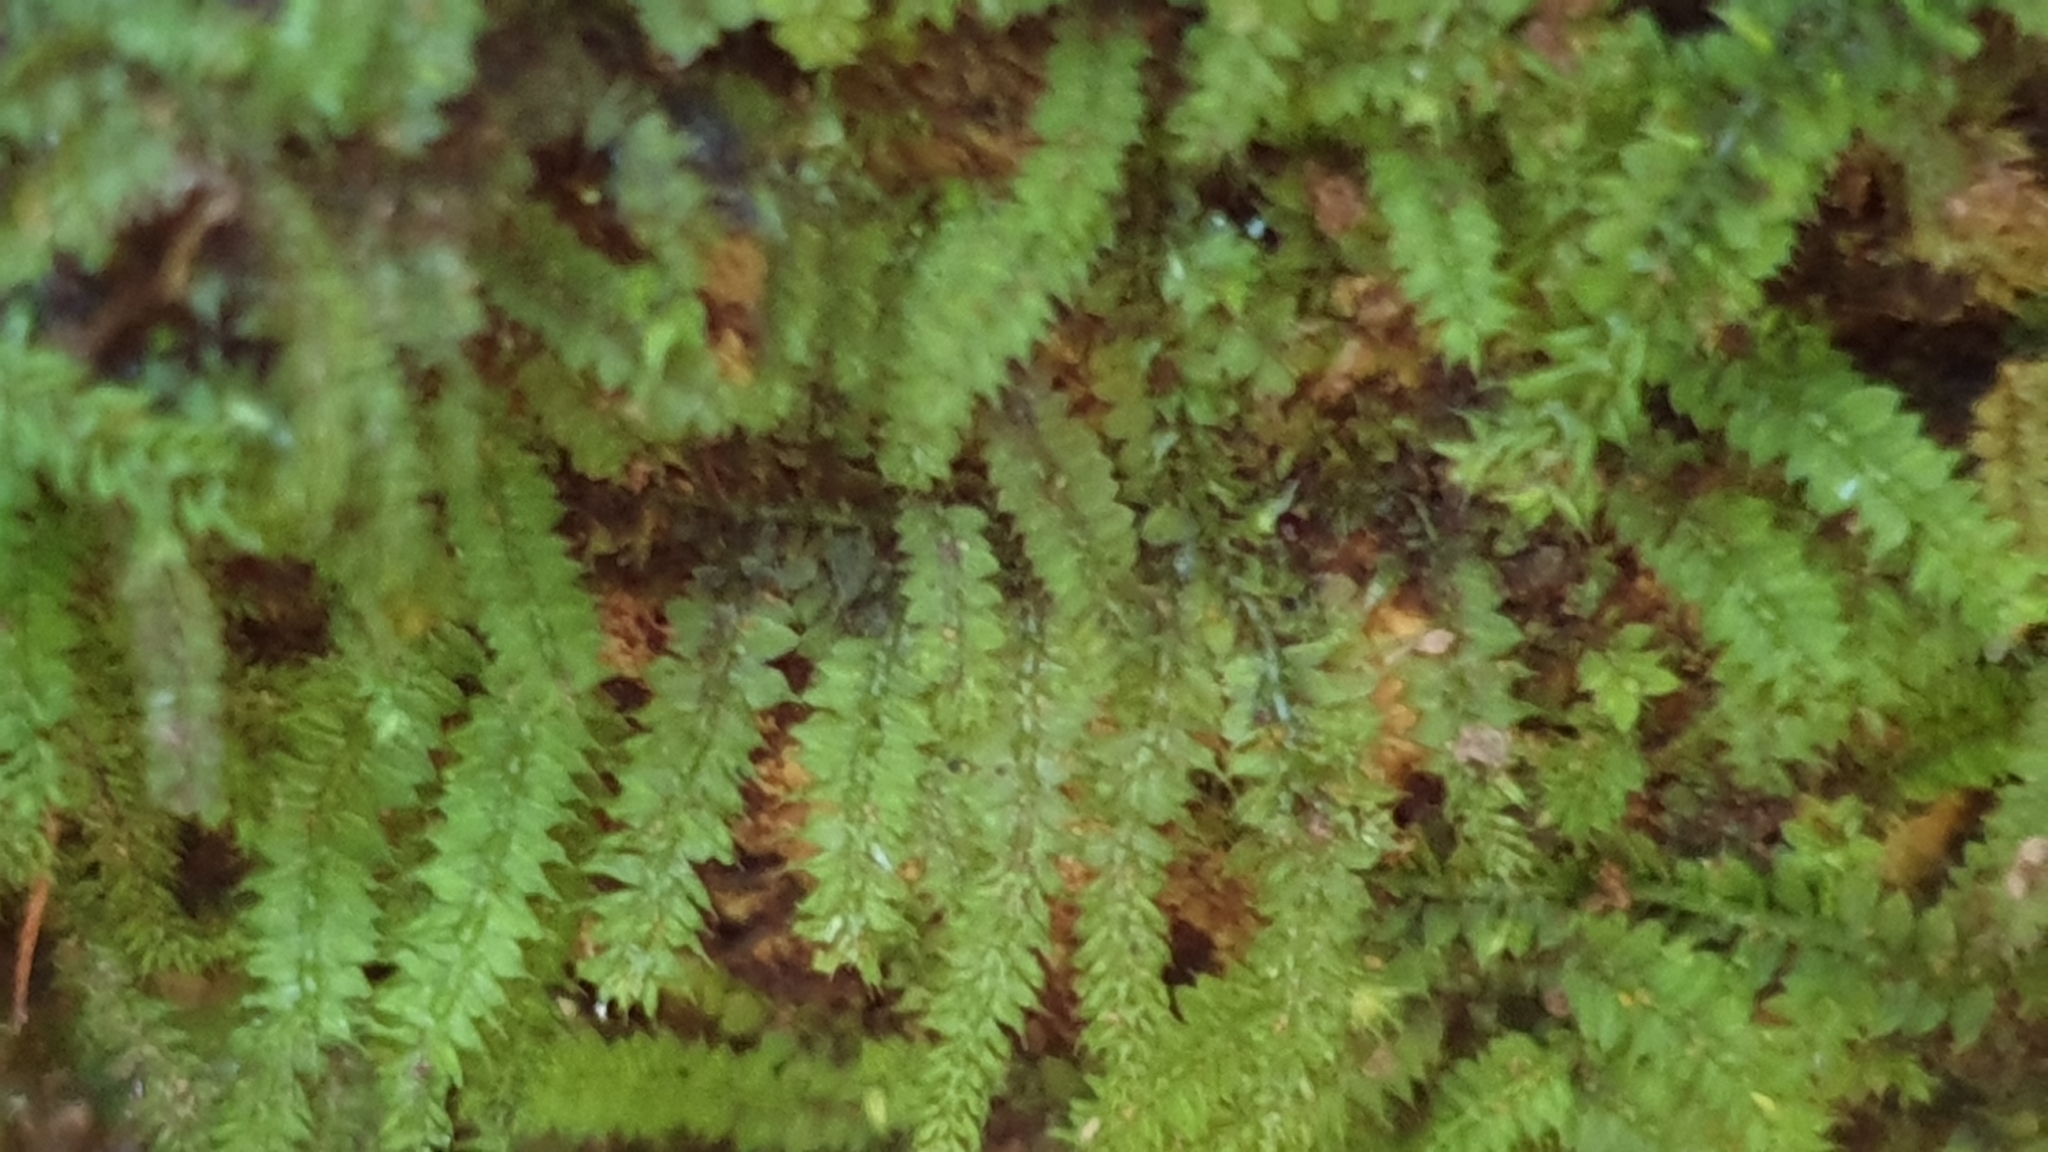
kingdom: Plantae
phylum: Bryophyta
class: Bryopsida
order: Hypnodendrales
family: Racopilaceae
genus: Racopilum
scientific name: Racopilum cuspidigerum
